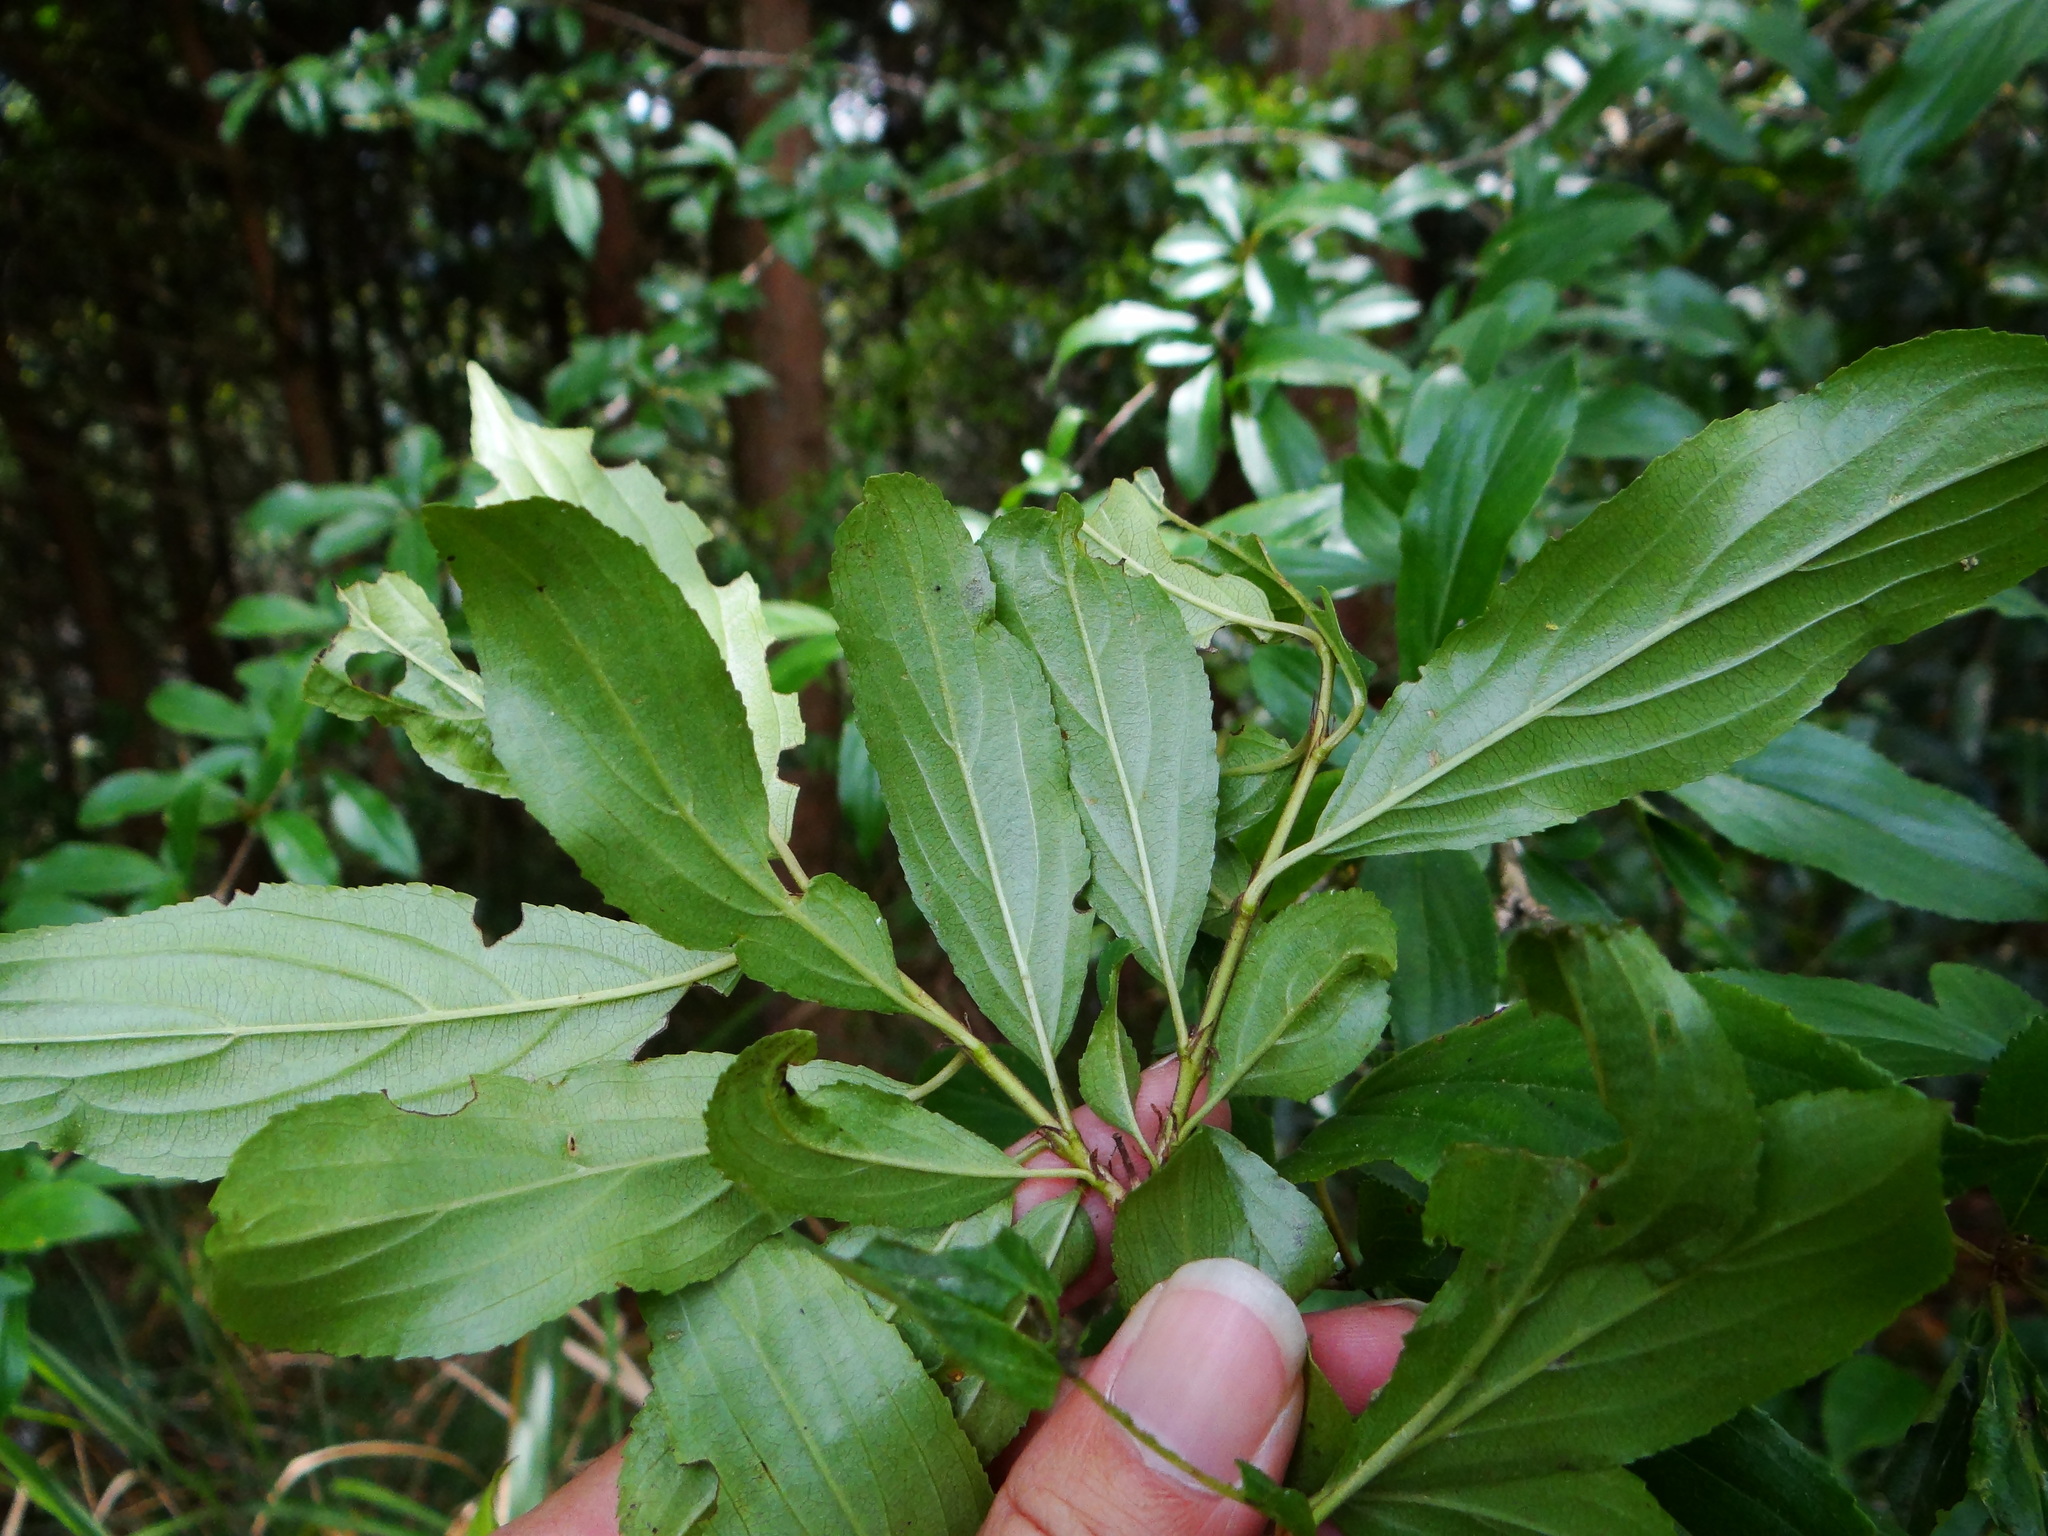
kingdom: Plantae
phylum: Tracheophyta
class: Magnoliopsida
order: Rosales
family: Rhamnaceae
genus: Rhamnus
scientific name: Rhamnus pilushanensis
